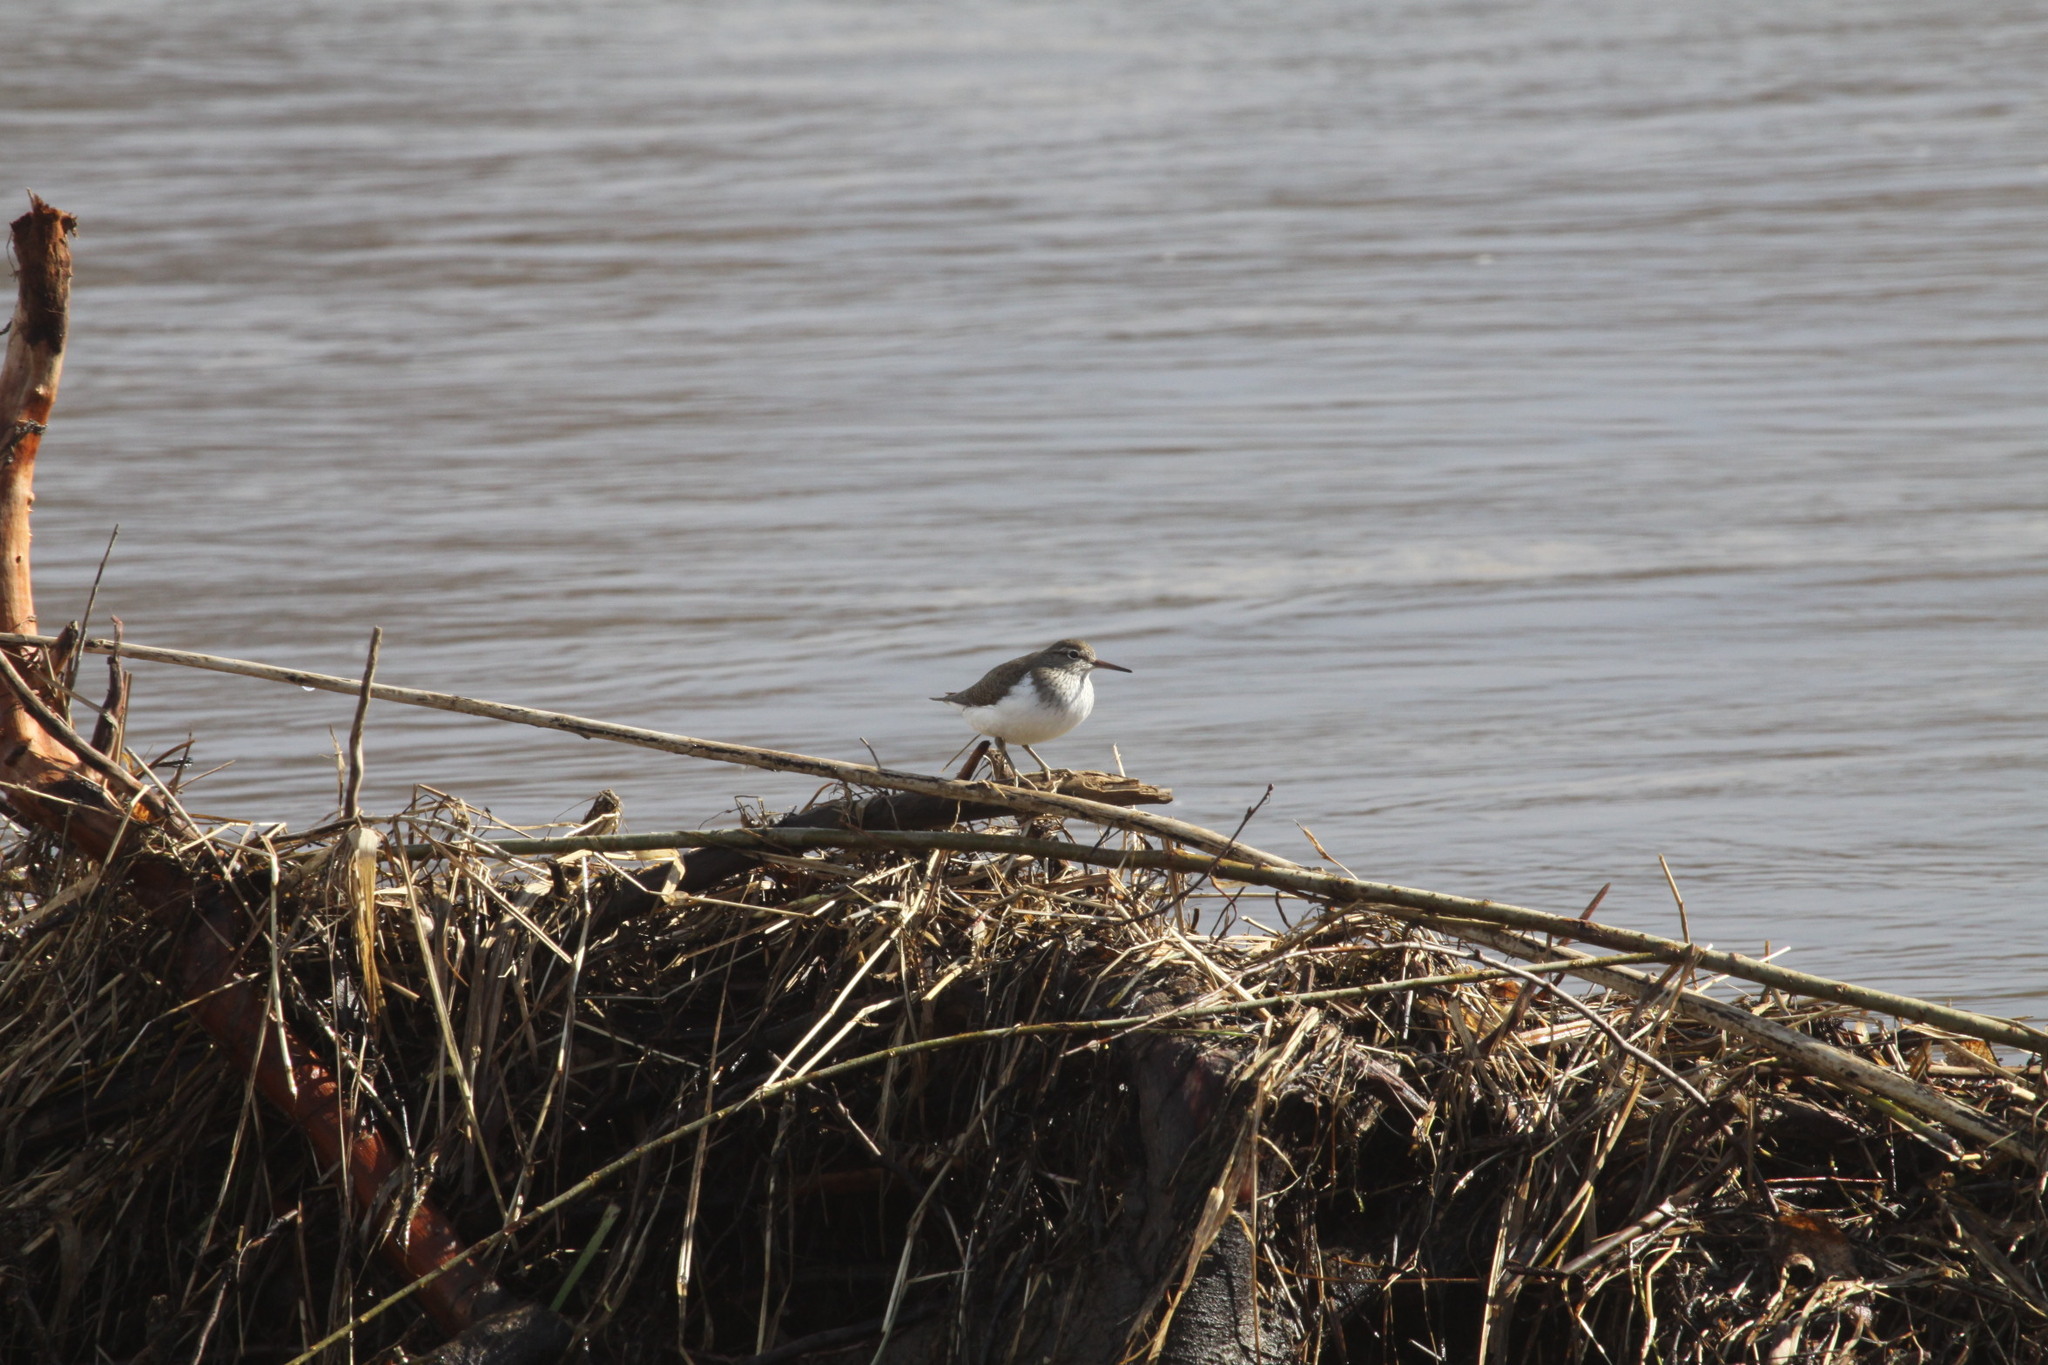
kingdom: Animalia
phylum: Chordata
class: Aves
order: Charadriiformes
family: Scolopacidae
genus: Actitis
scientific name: Actitis hypoleucos
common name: Common sandpiper
